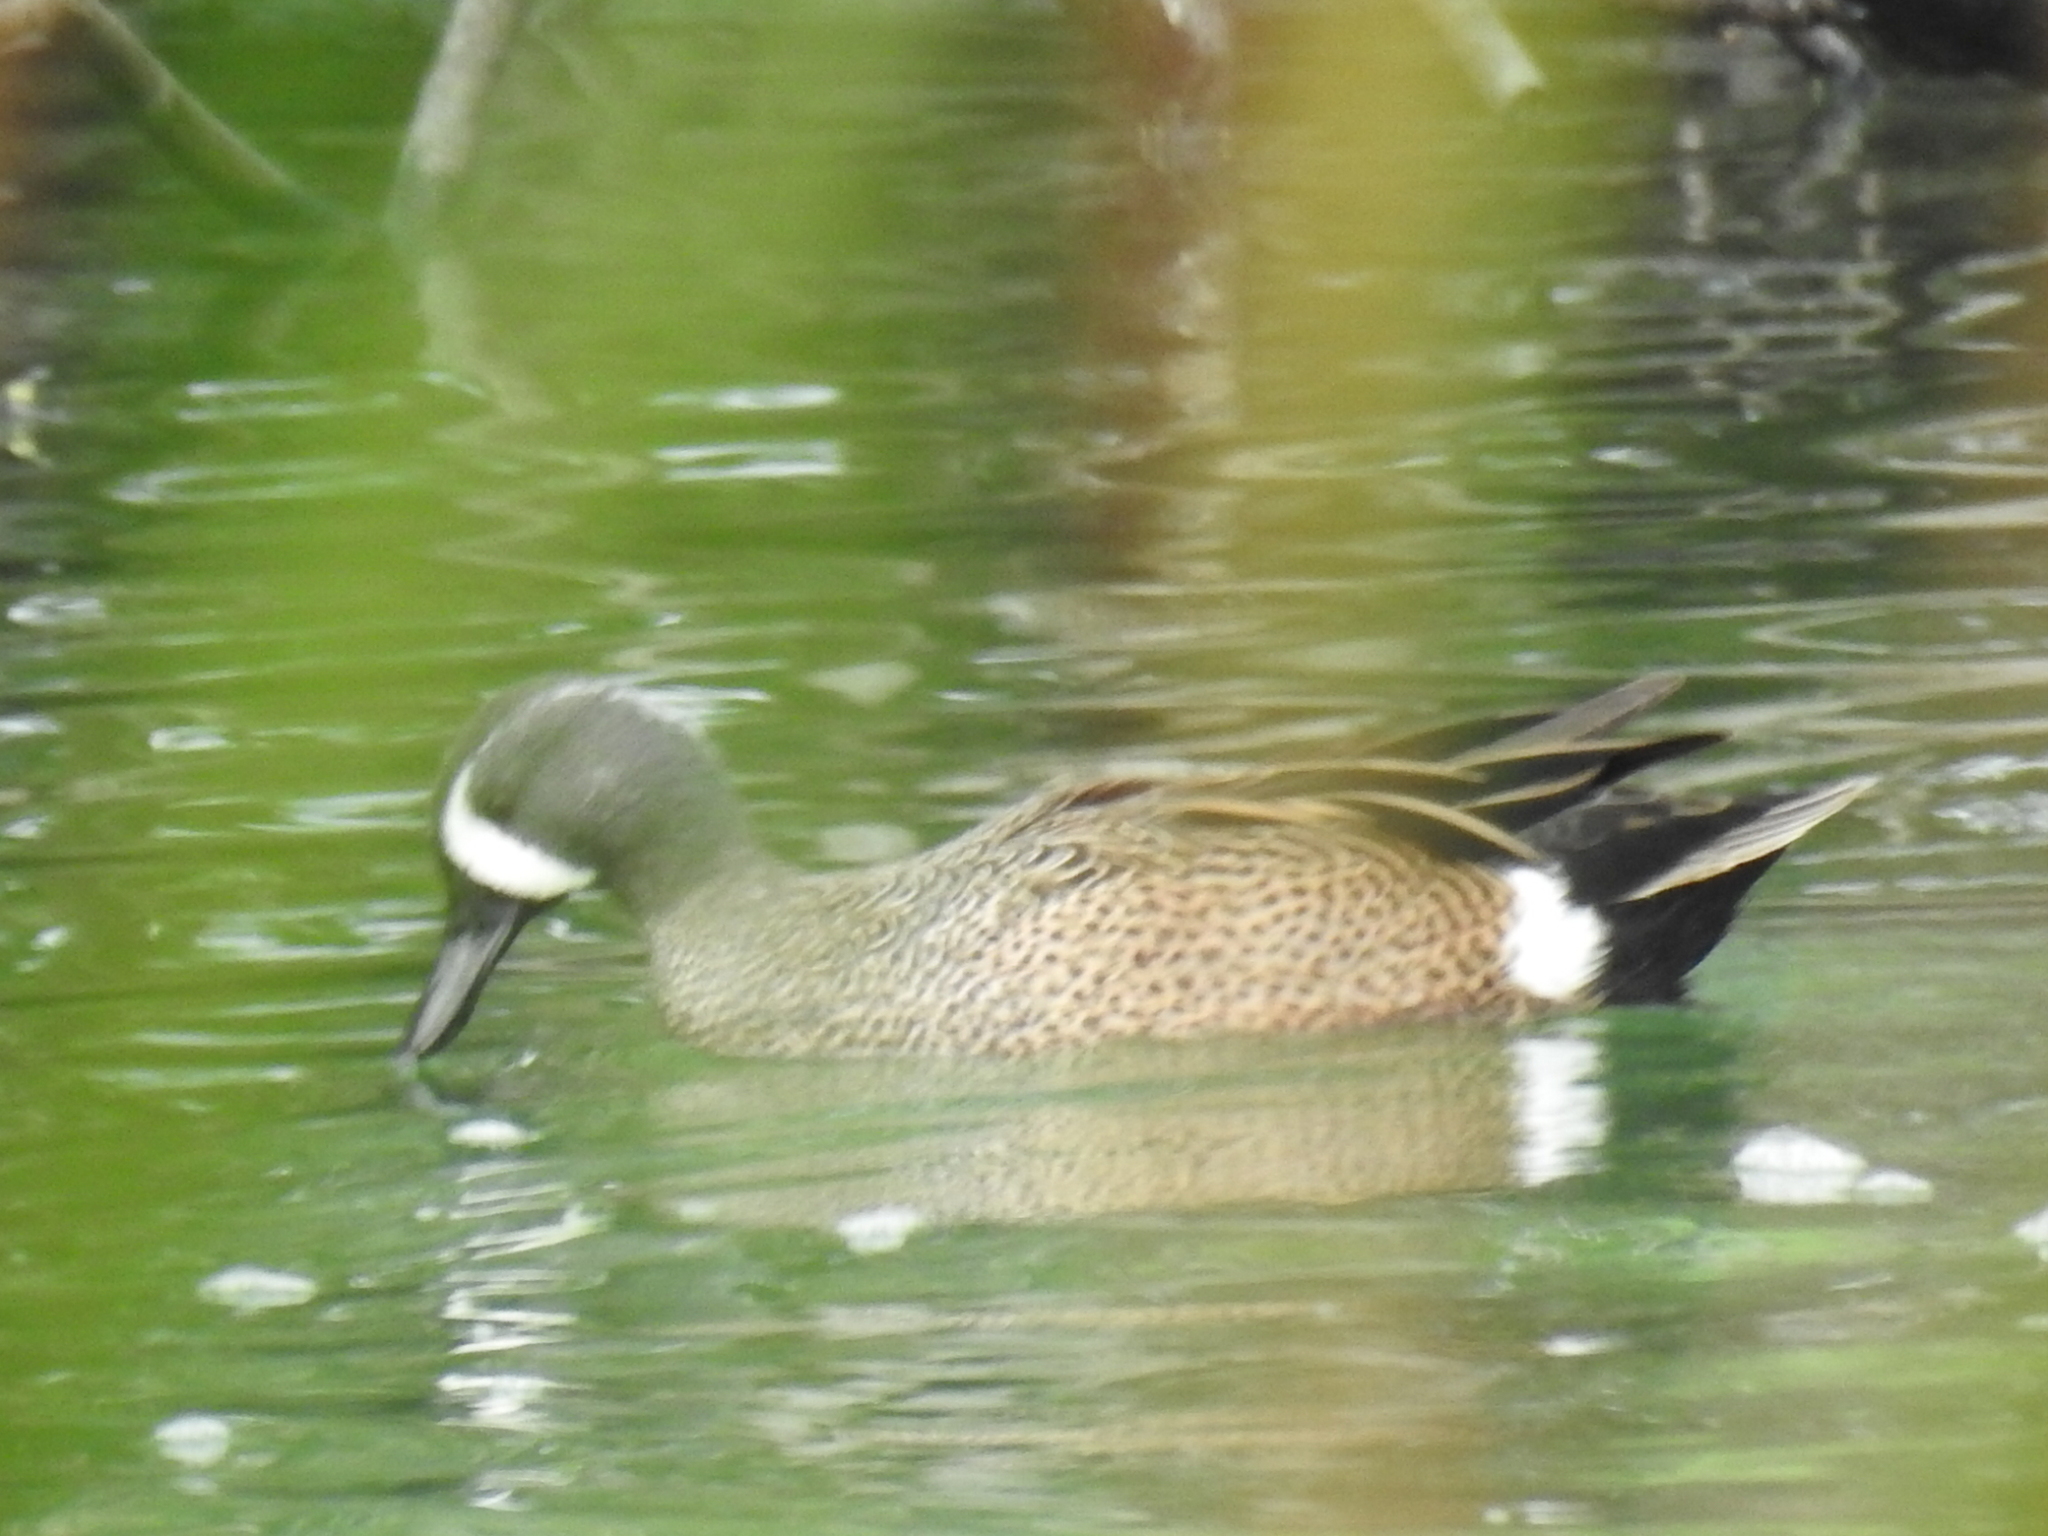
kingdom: Animalia
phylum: Chordata
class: Aves
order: Anseriformes
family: Anatidae
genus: Spatula
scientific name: Spatula discors
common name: Blue-winged teal
